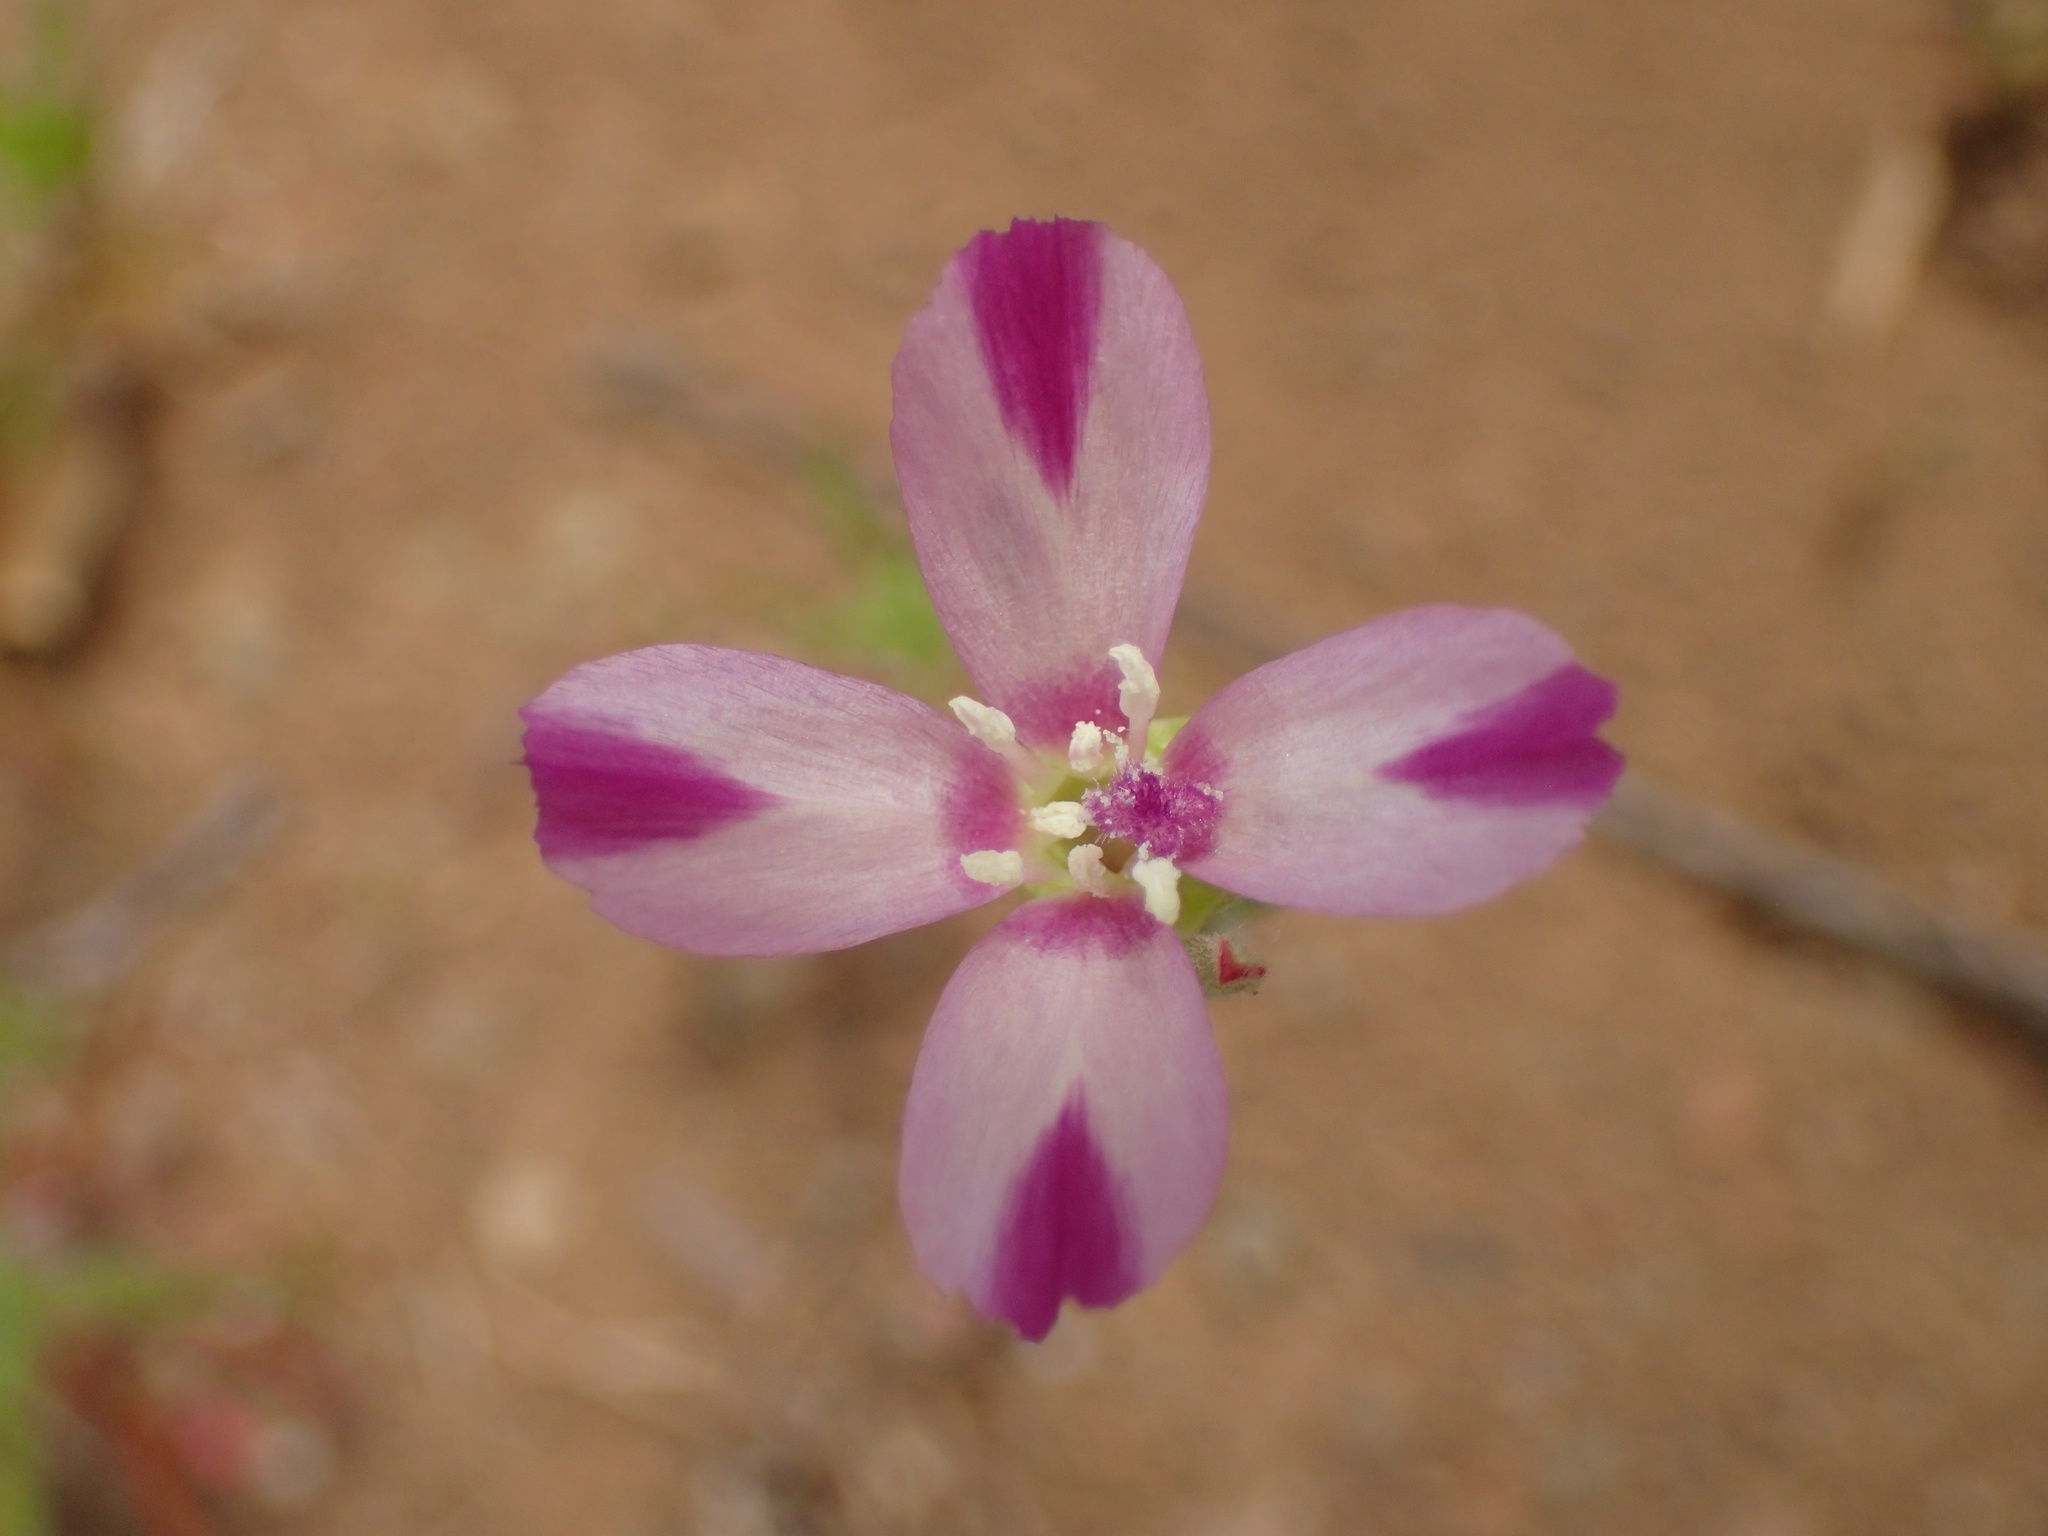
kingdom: Plantae
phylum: Tracheophyta
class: Magnoliopsida
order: Myrtales
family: Onagraceae
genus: Clarkia
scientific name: Clarkia purpurea
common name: Purple clarkia
